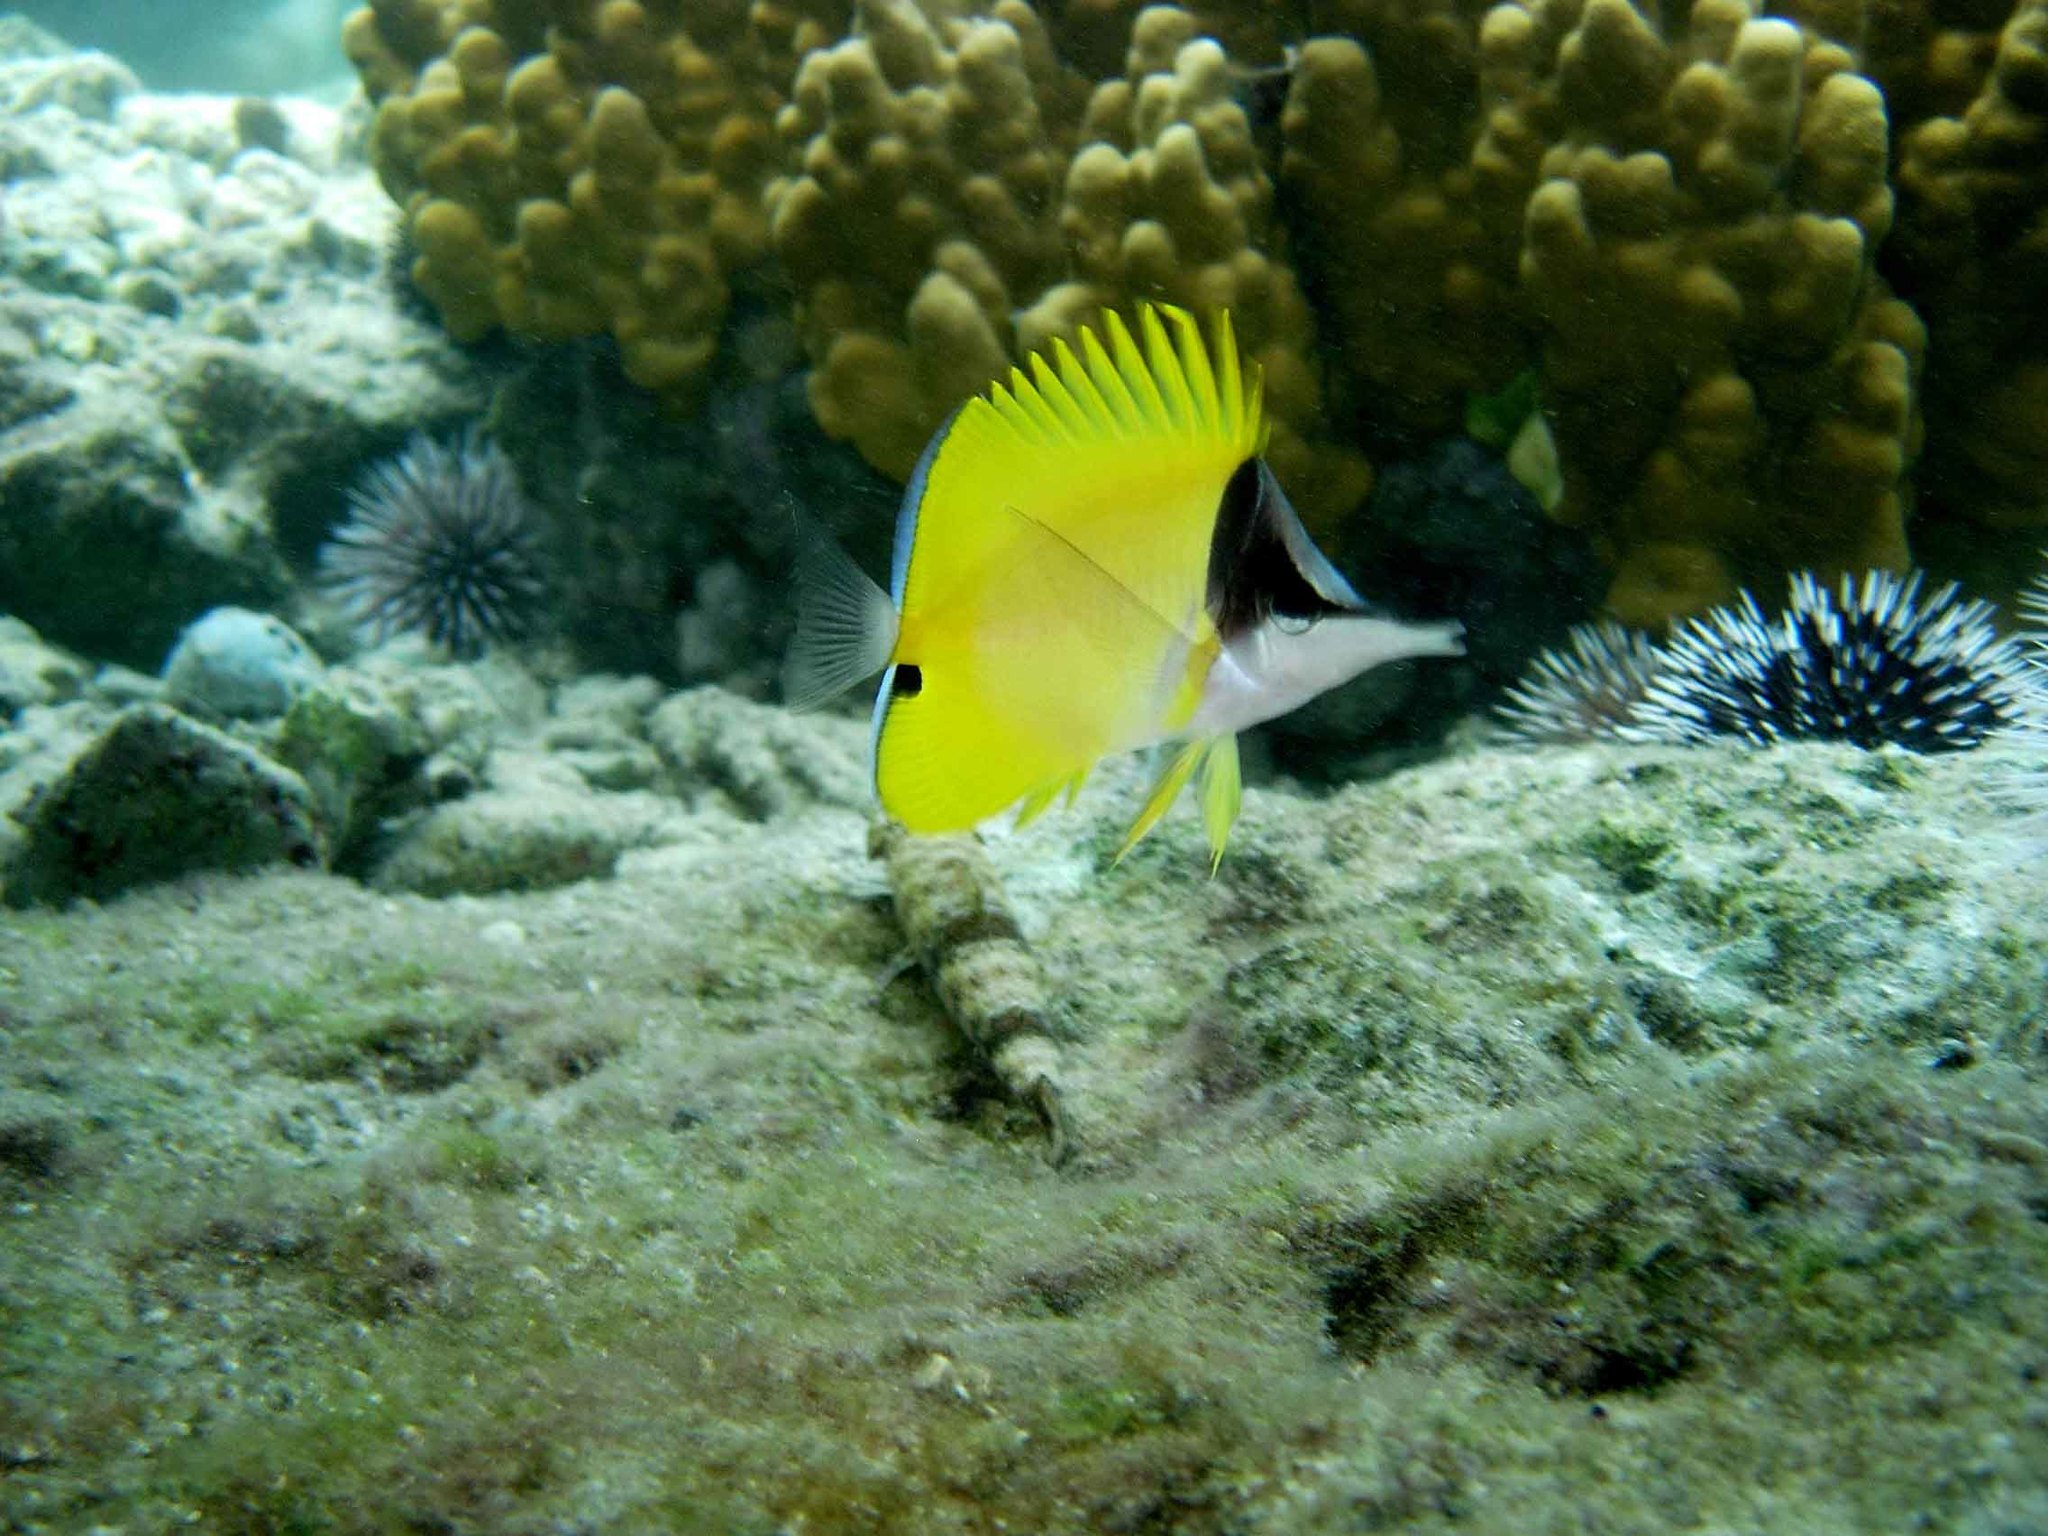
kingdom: Animalia
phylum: Chordata
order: Perciformes
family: Chaetodontidae
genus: Forcipiger
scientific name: Forcipiger flavissimus
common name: Forcepsfish
